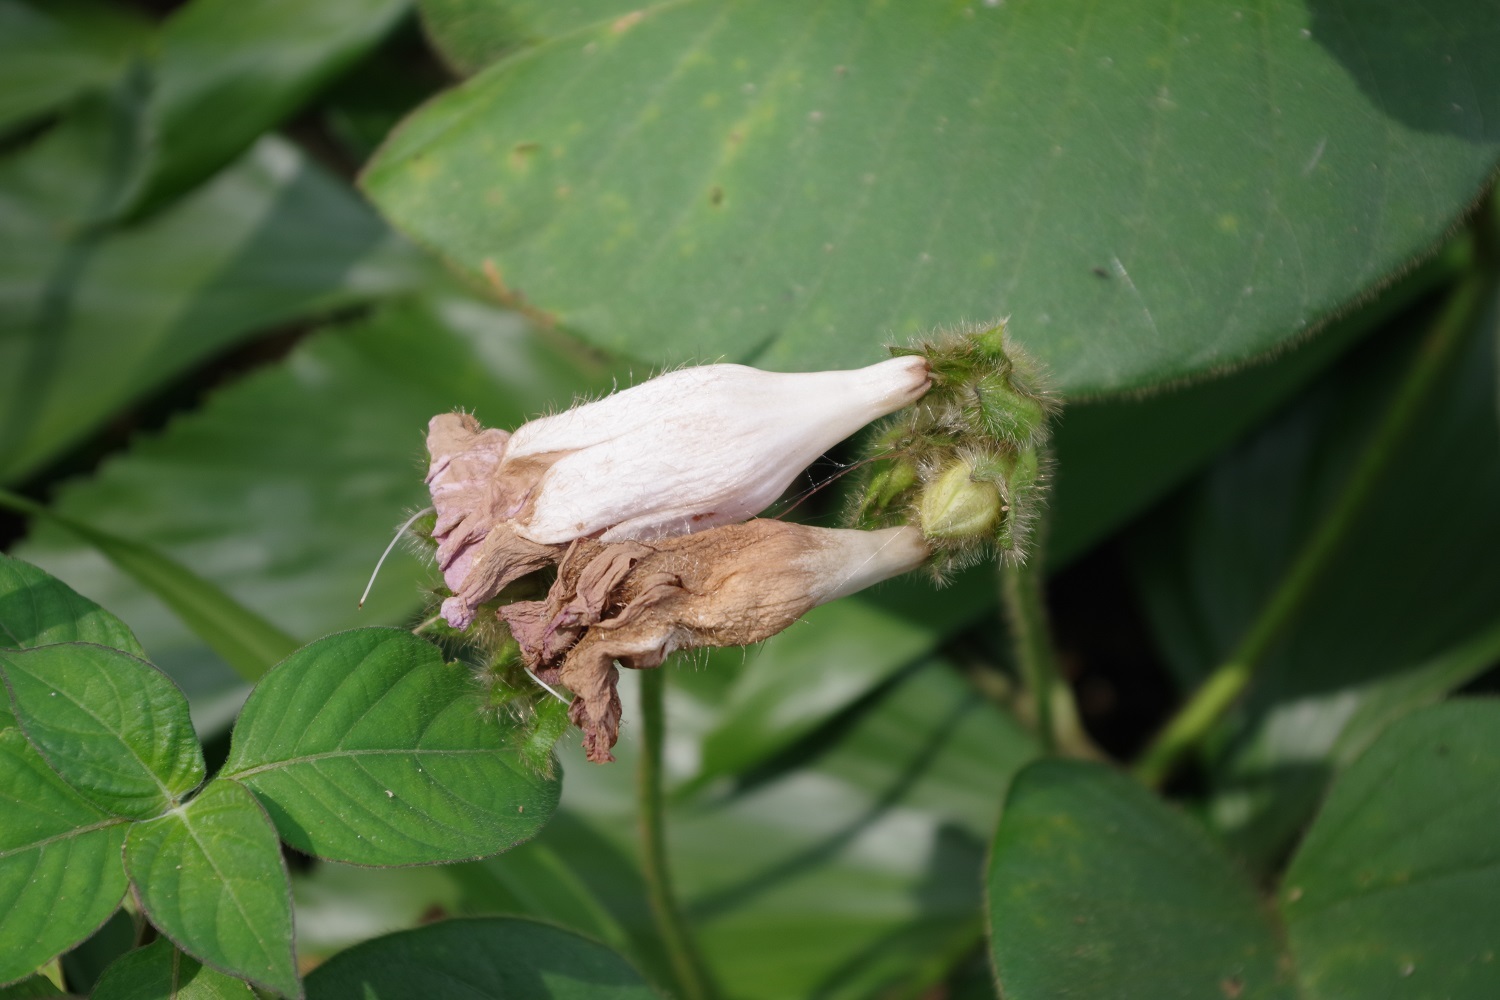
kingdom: Plantae
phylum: Tracheophyta
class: Magnoliopsida
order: Solanales
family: Convolvulaceae
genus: Argyreia
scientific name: Argyreia capitiformis
